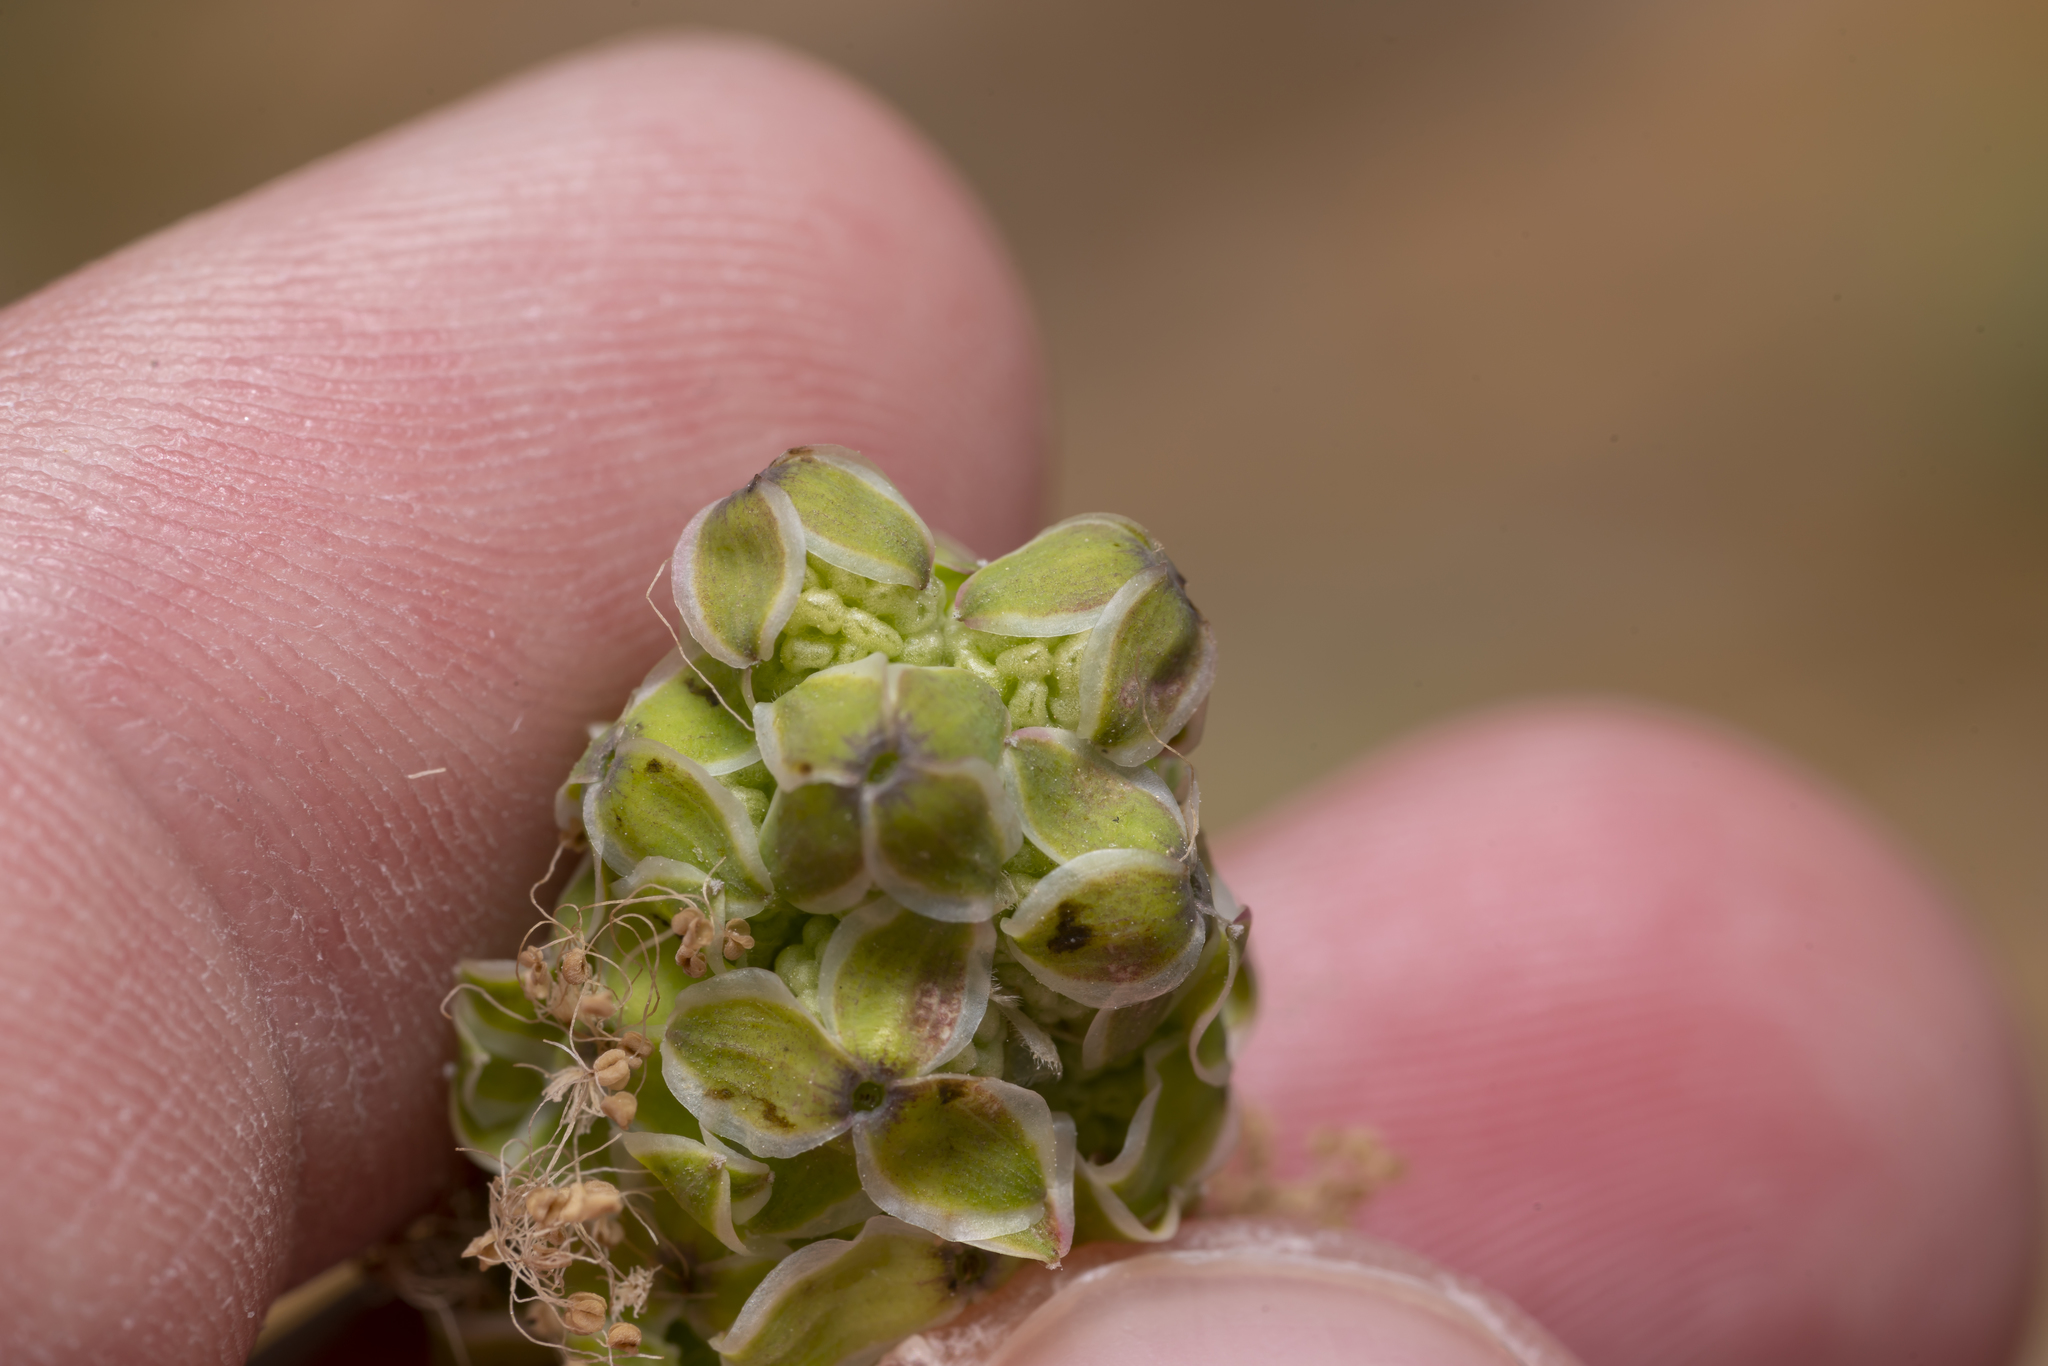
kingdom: Plantae
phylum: Tracheophyta
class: Magnoliopsida
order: Rosales
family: Rosaceae
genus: Poterium
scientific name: Poterium
